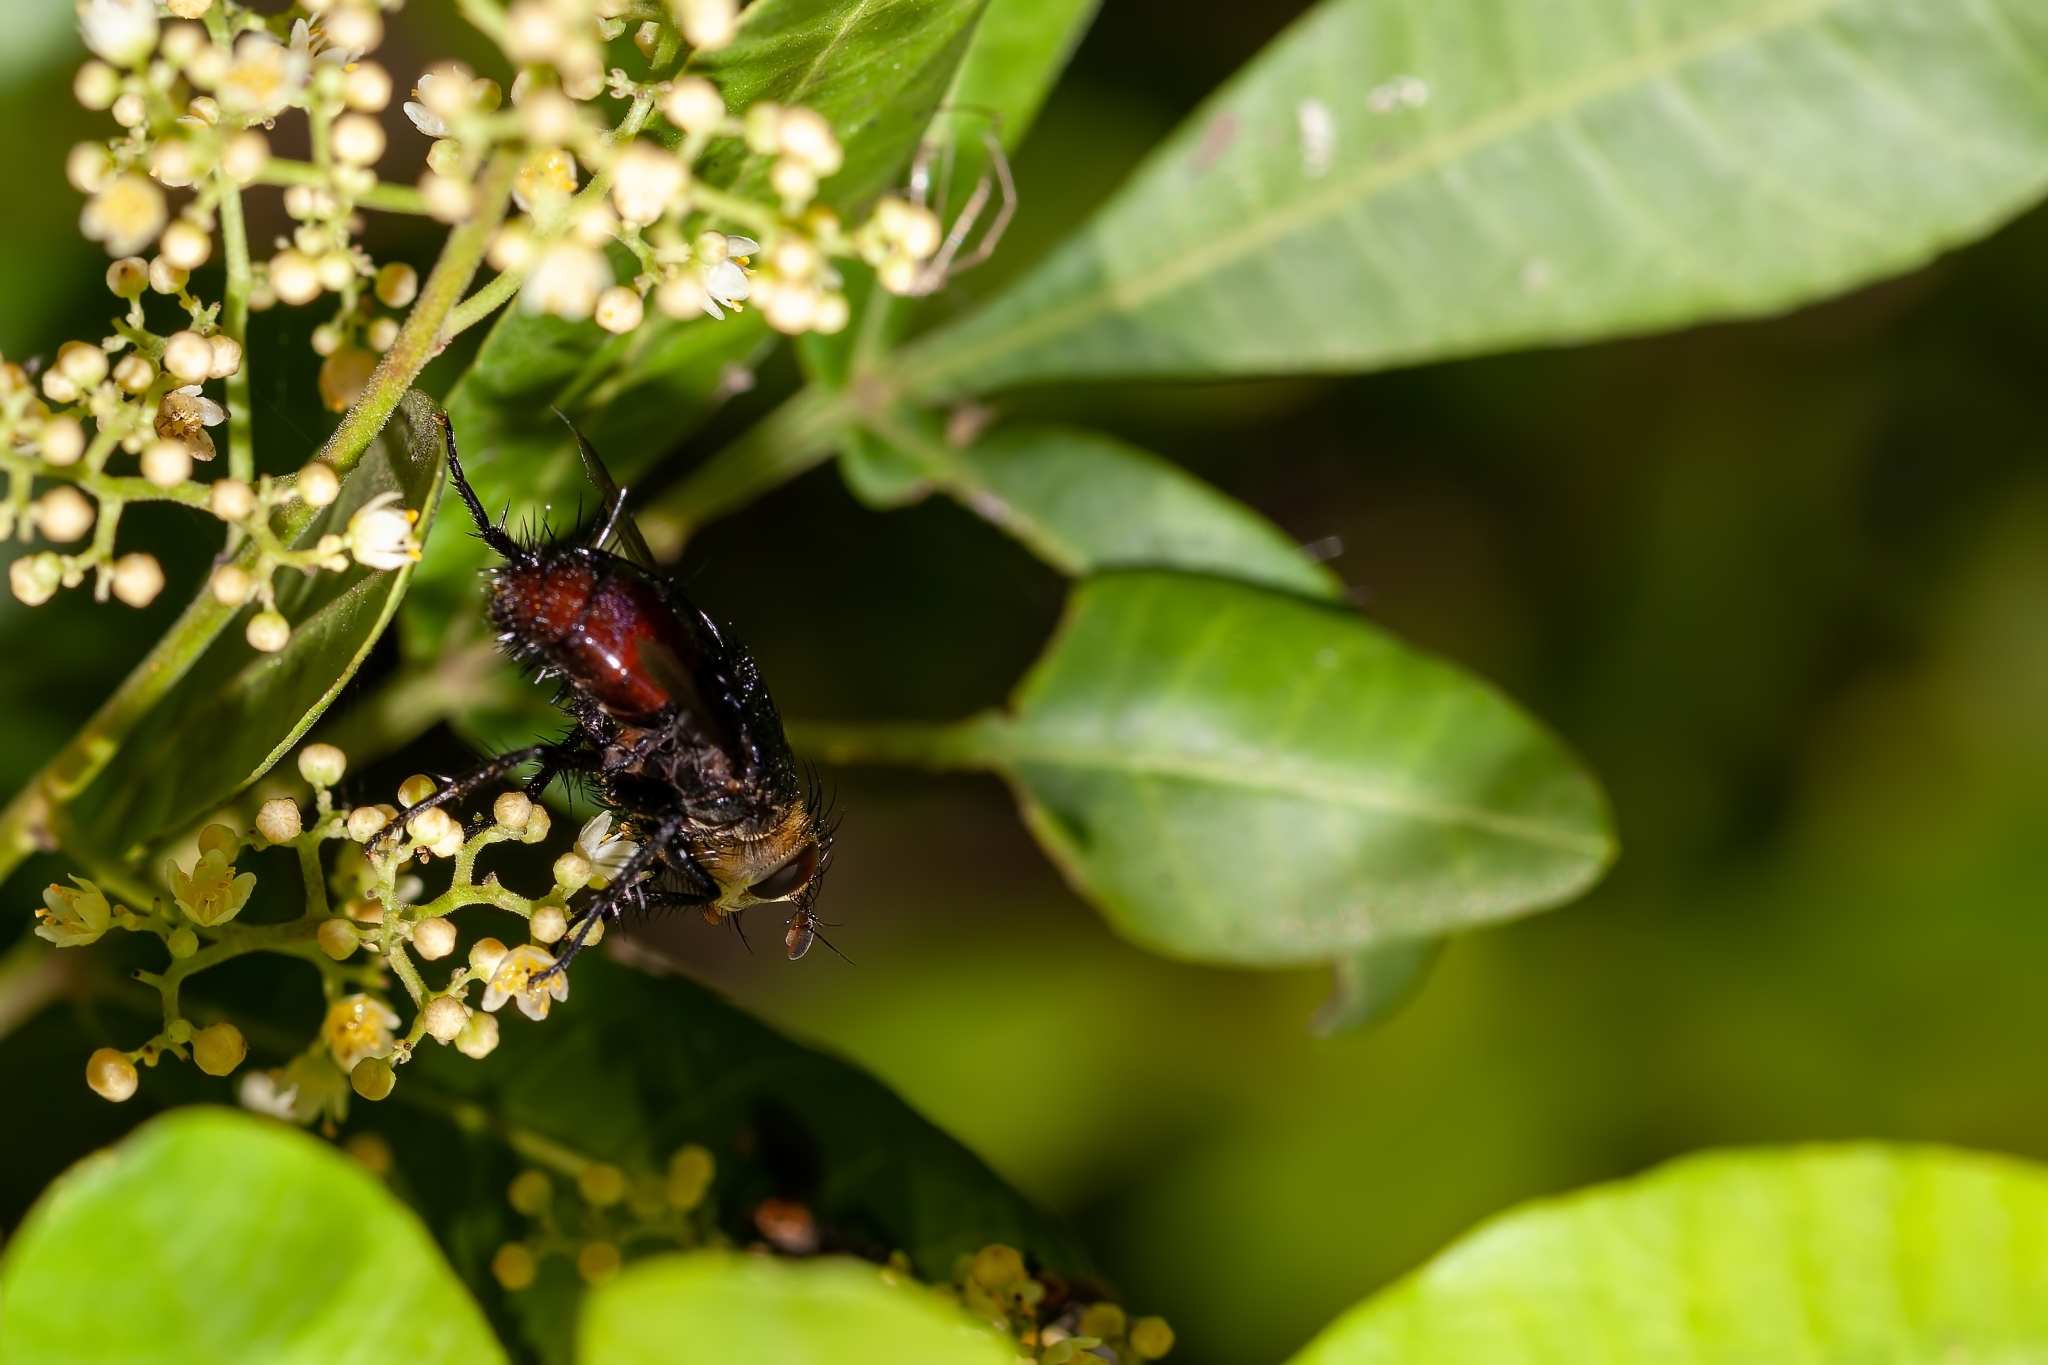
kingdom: Animalia
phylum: Arthropoda
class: Insecta
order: Diptera
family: Tachinidae
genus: Archytas
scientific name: Archytas metallicus
